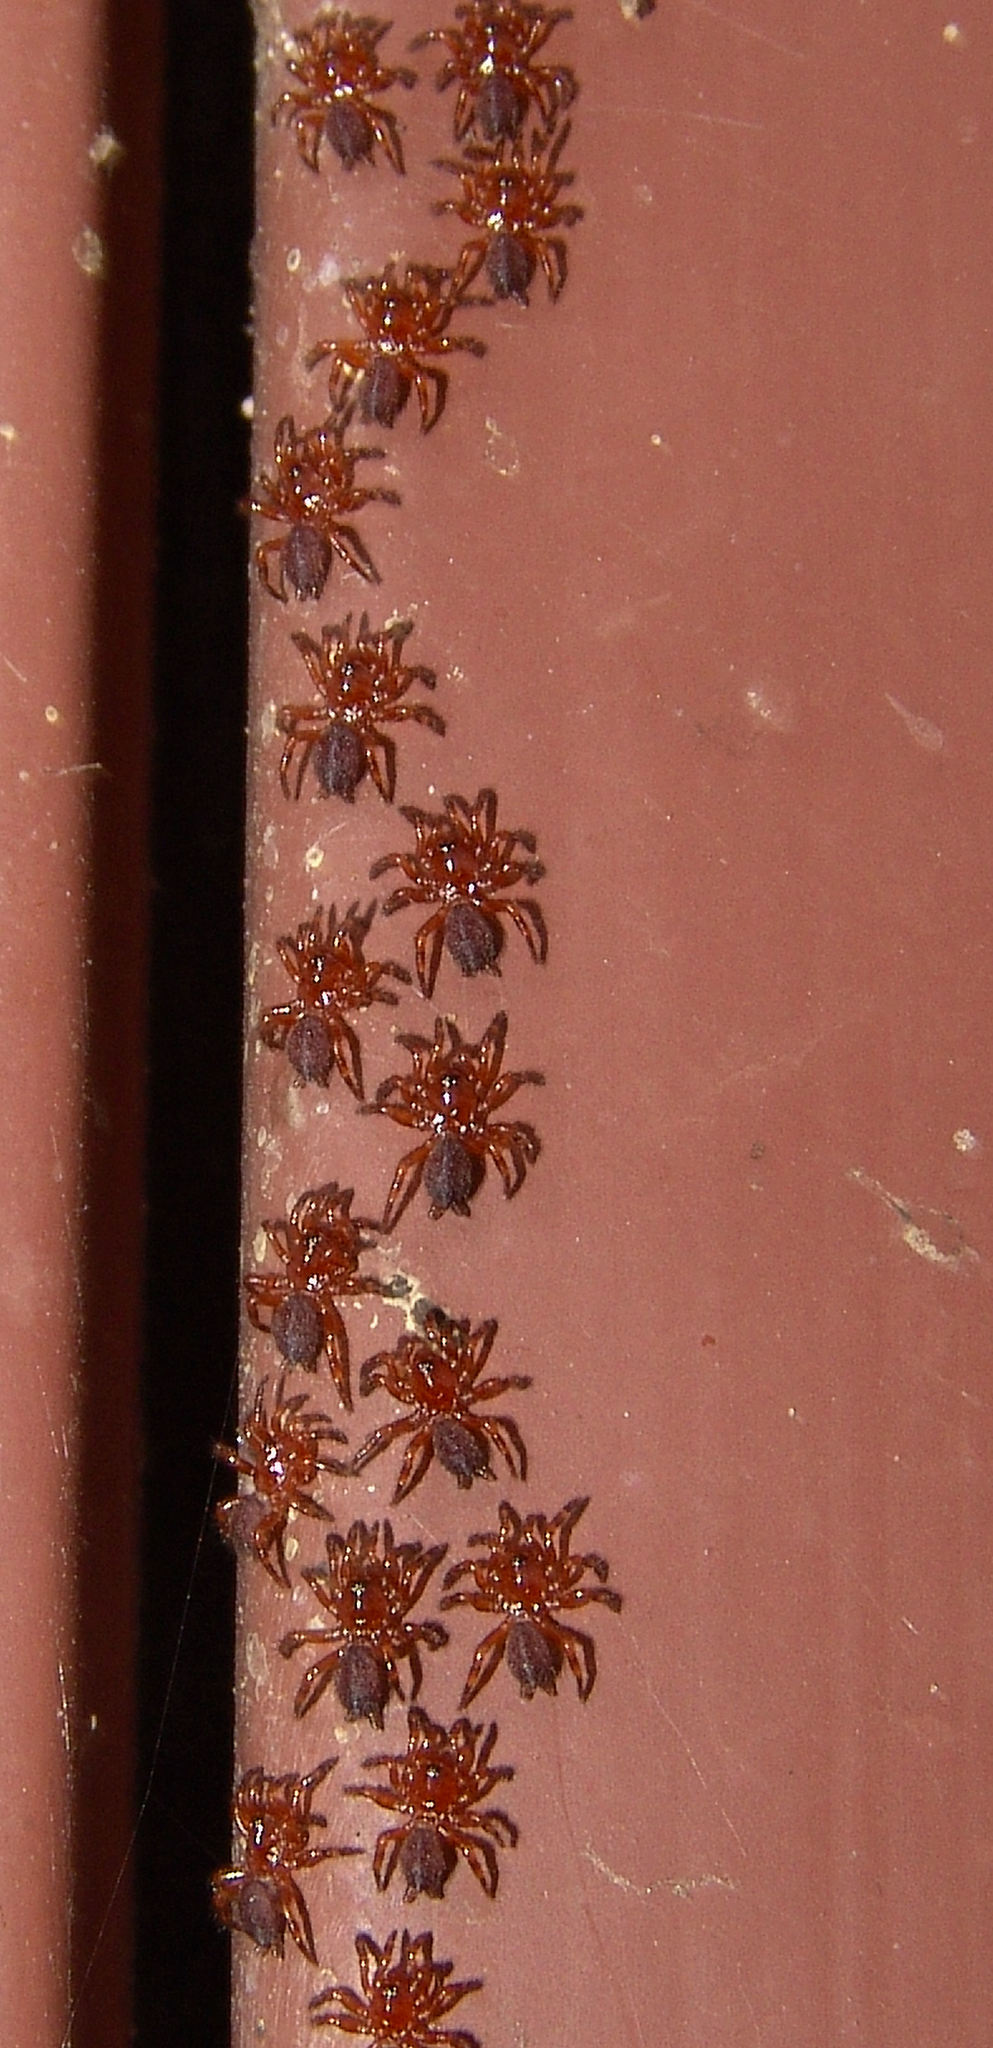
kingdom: Animalia
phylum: Arthropoda
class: Arachnida
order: Araneae
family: Halonoproctidae
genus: Ummidia
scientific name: Ummidia
